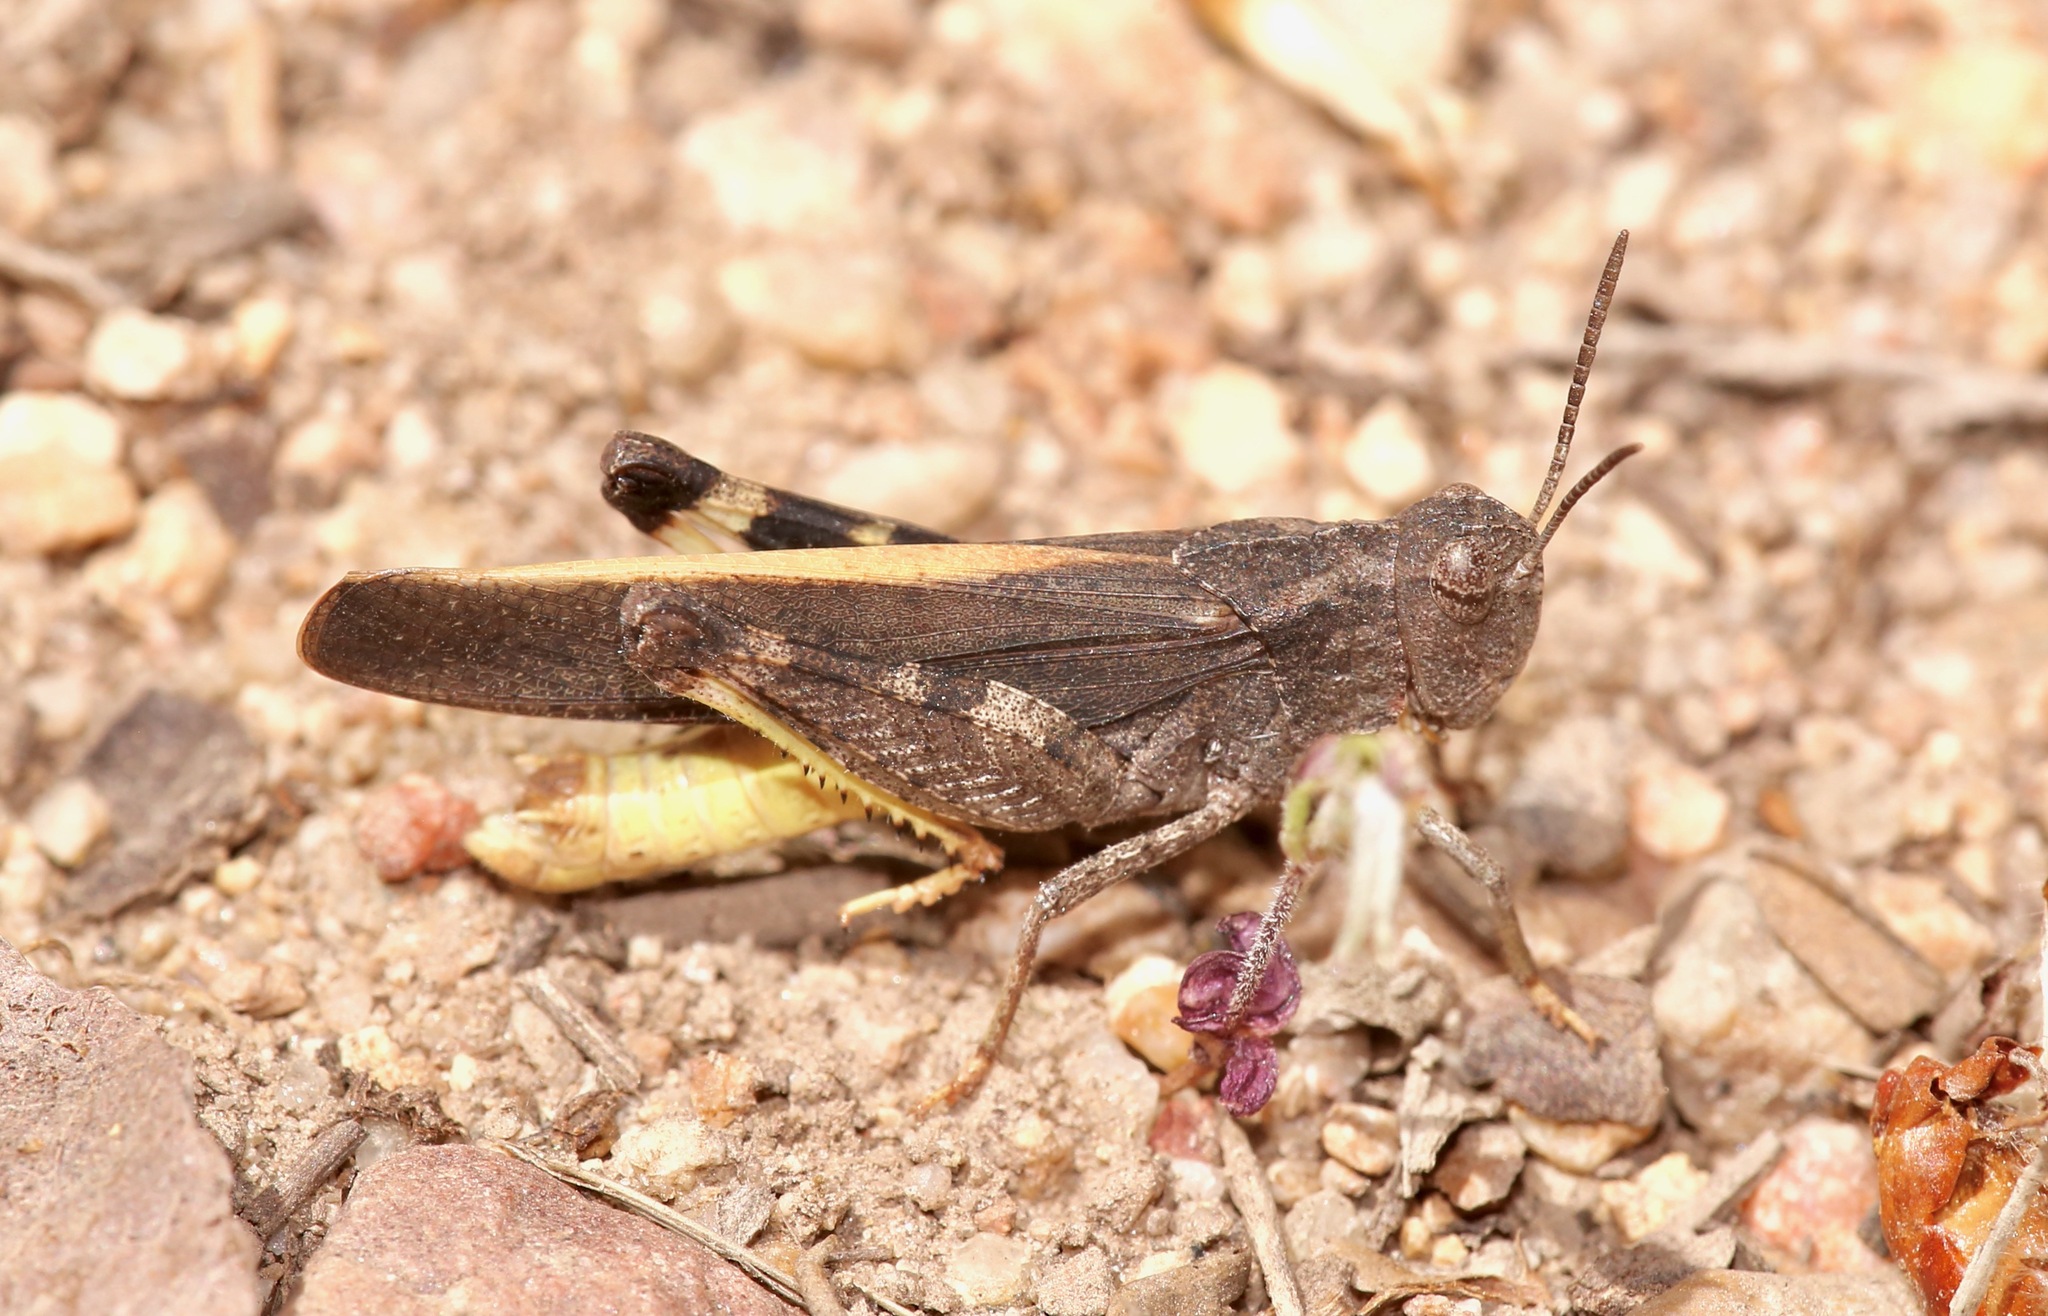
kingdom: Animalia
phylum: Arthropoda
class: Insecta
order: Orthoptera
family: Acrididae
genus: Arphia
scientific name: Arphia conspersa
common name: Speckle-winged rangeland grasshopper
